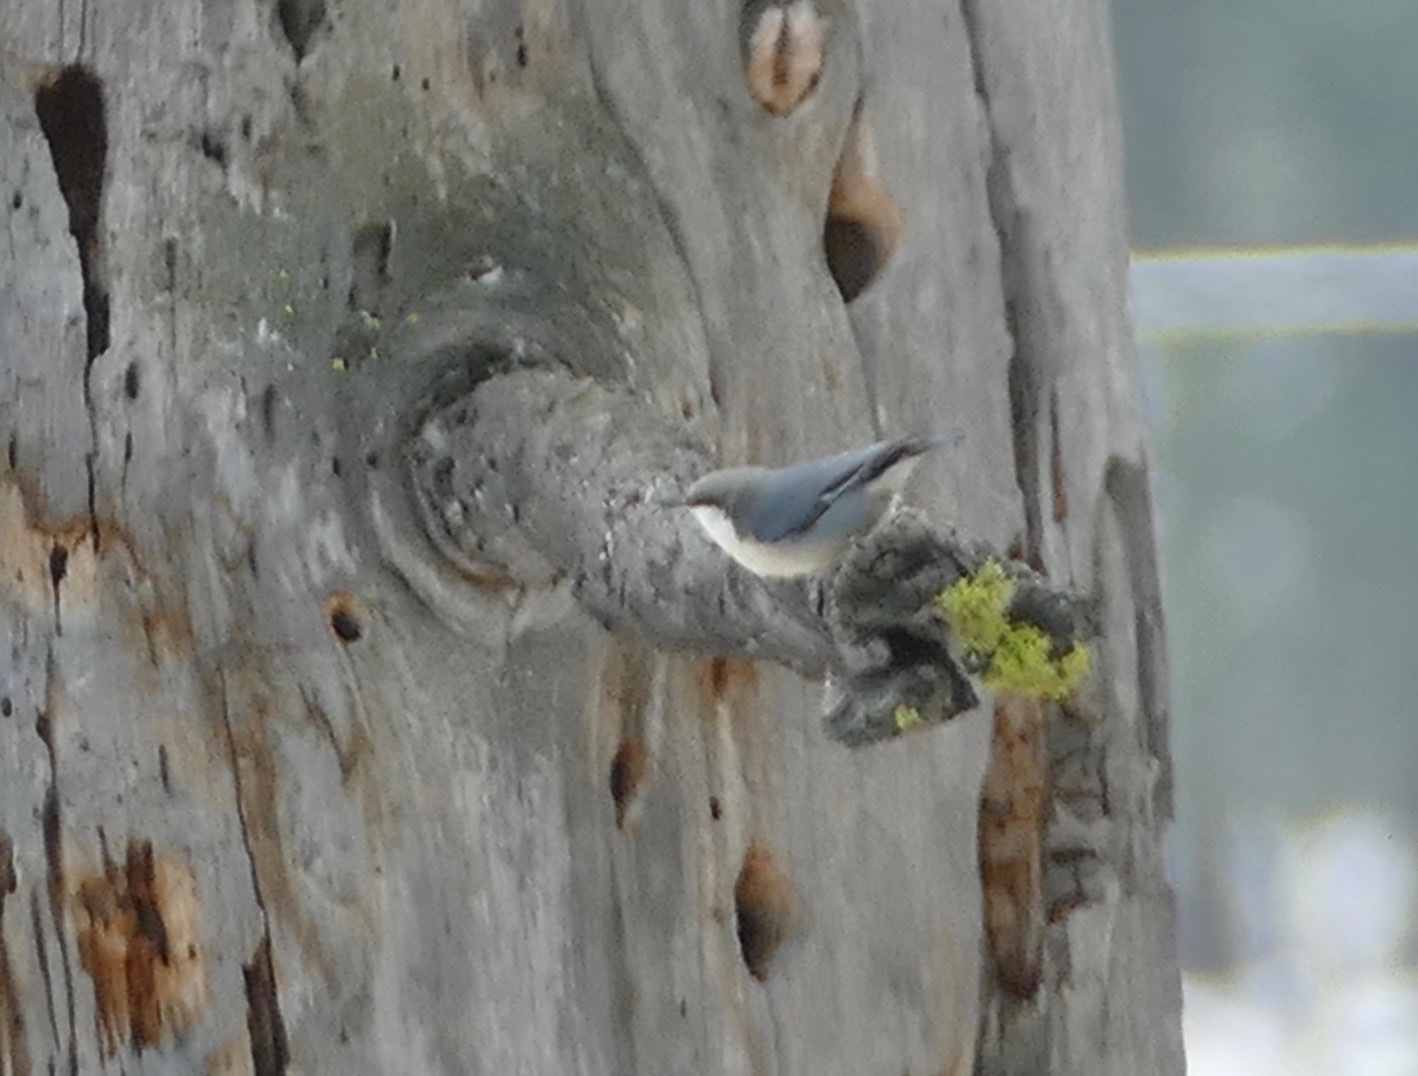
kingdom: Animalia
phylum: Chordata
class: Aves
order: Passeriformes
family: Sittidae
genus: Sitta
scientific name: Sitta pygmaea
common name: Pygmy nuthatch
